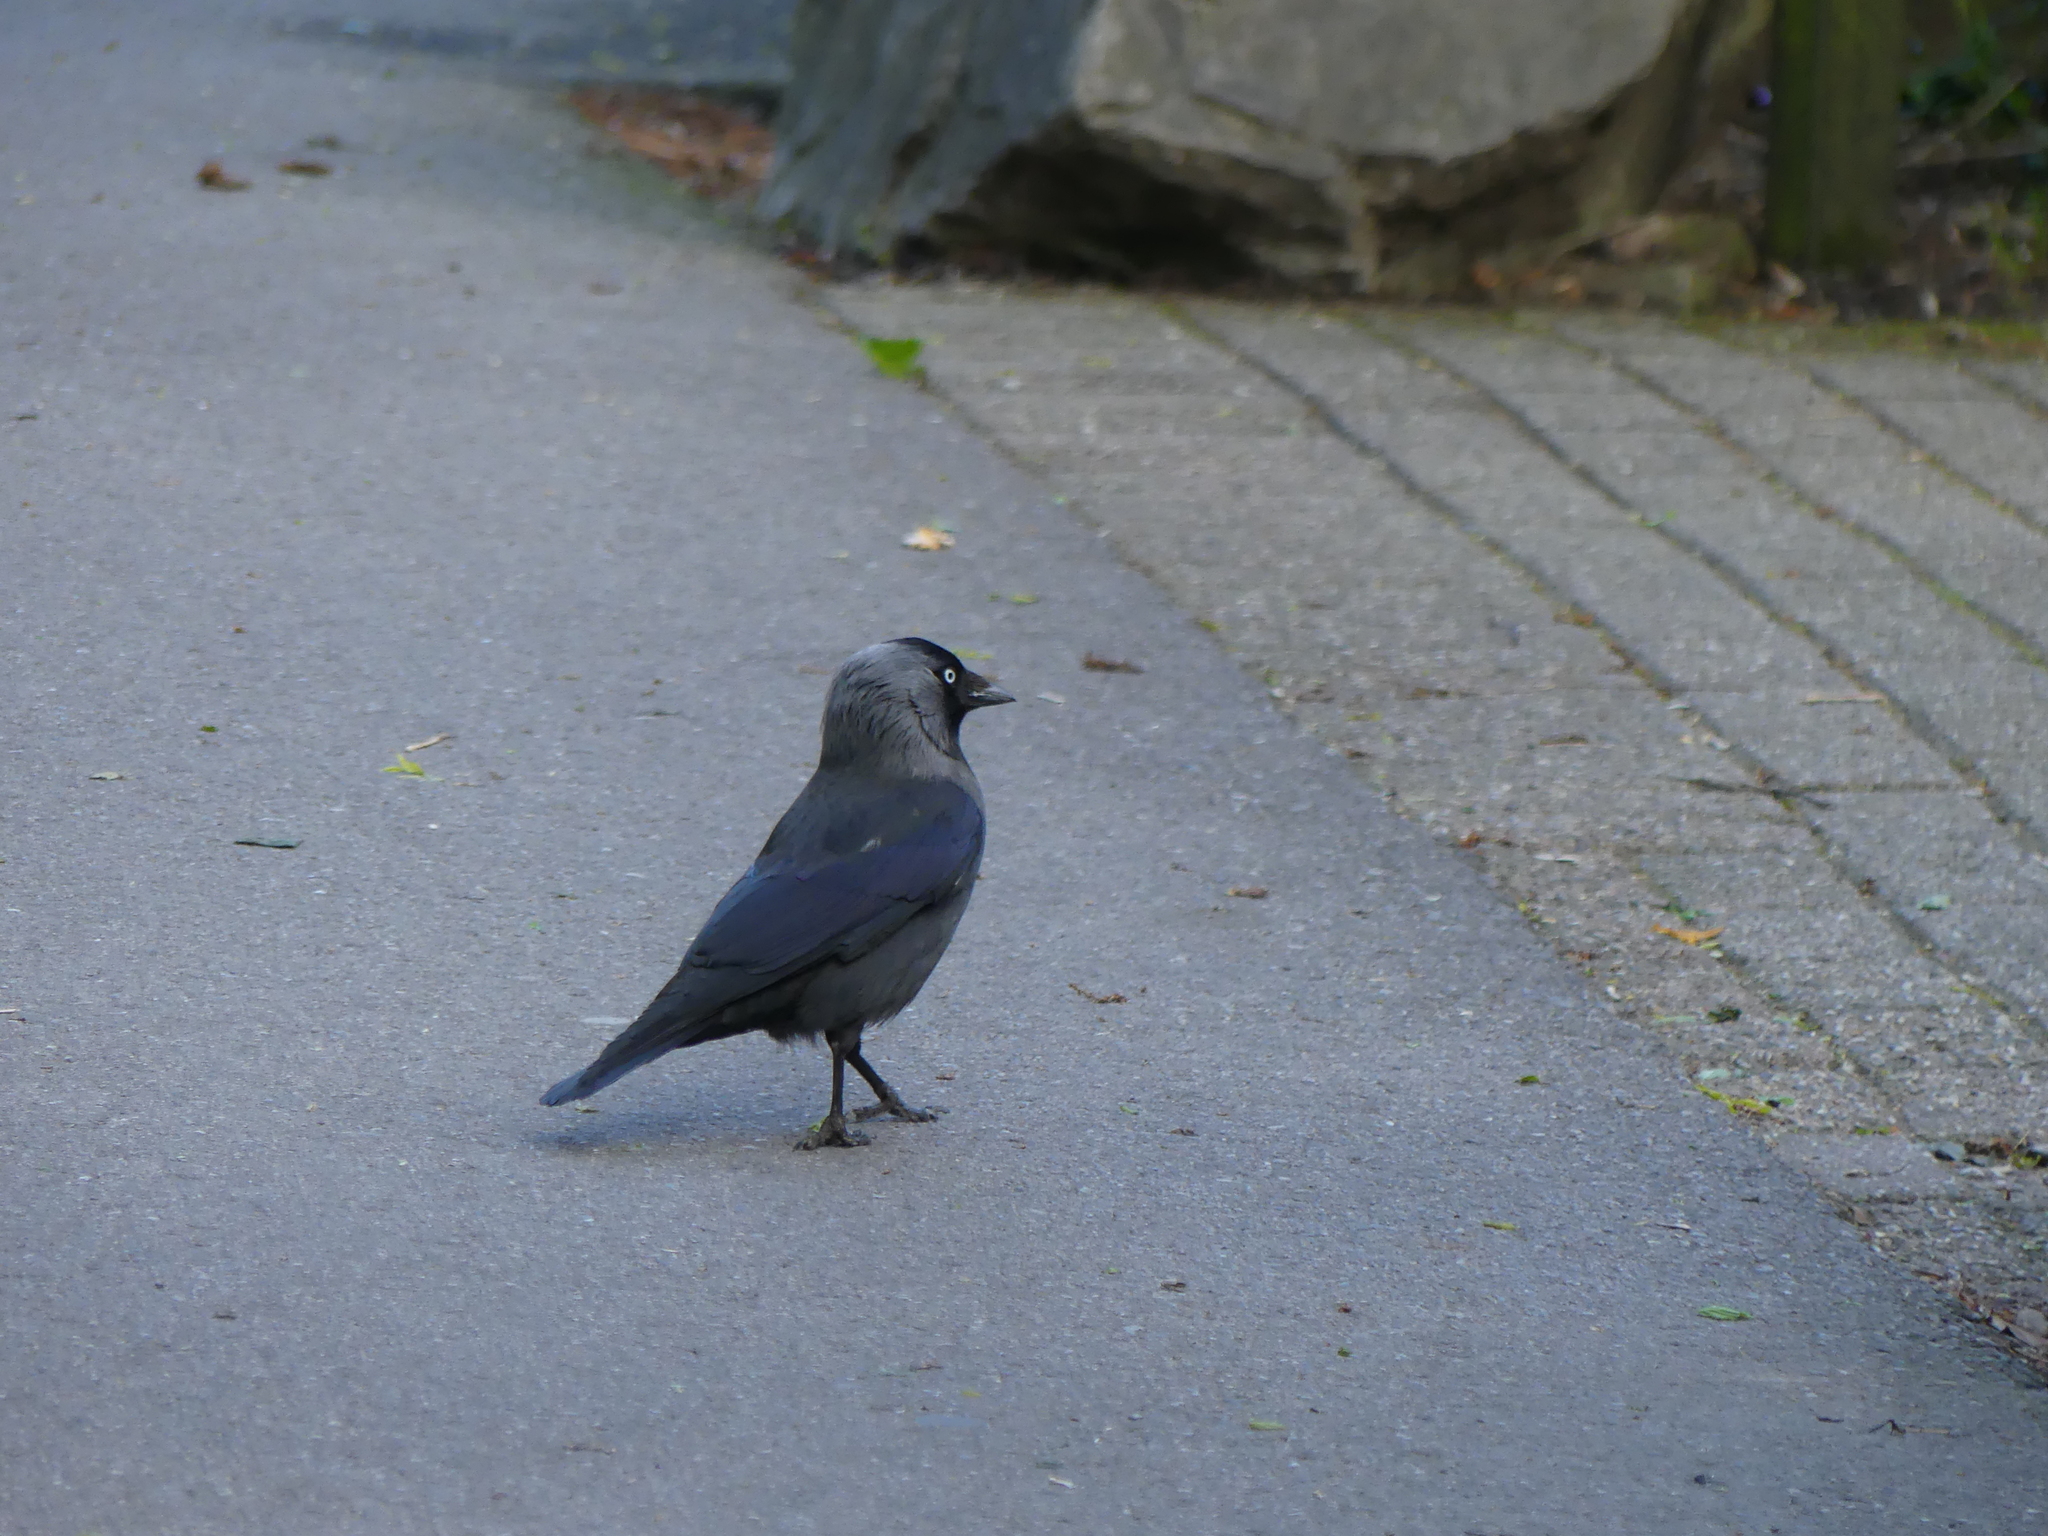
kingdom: Animalia
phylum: Chordata
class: Aves
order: Passeriformes
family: Corvidae
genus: Coloeus
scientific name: Coloeus monedula
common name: Western jackdaw
